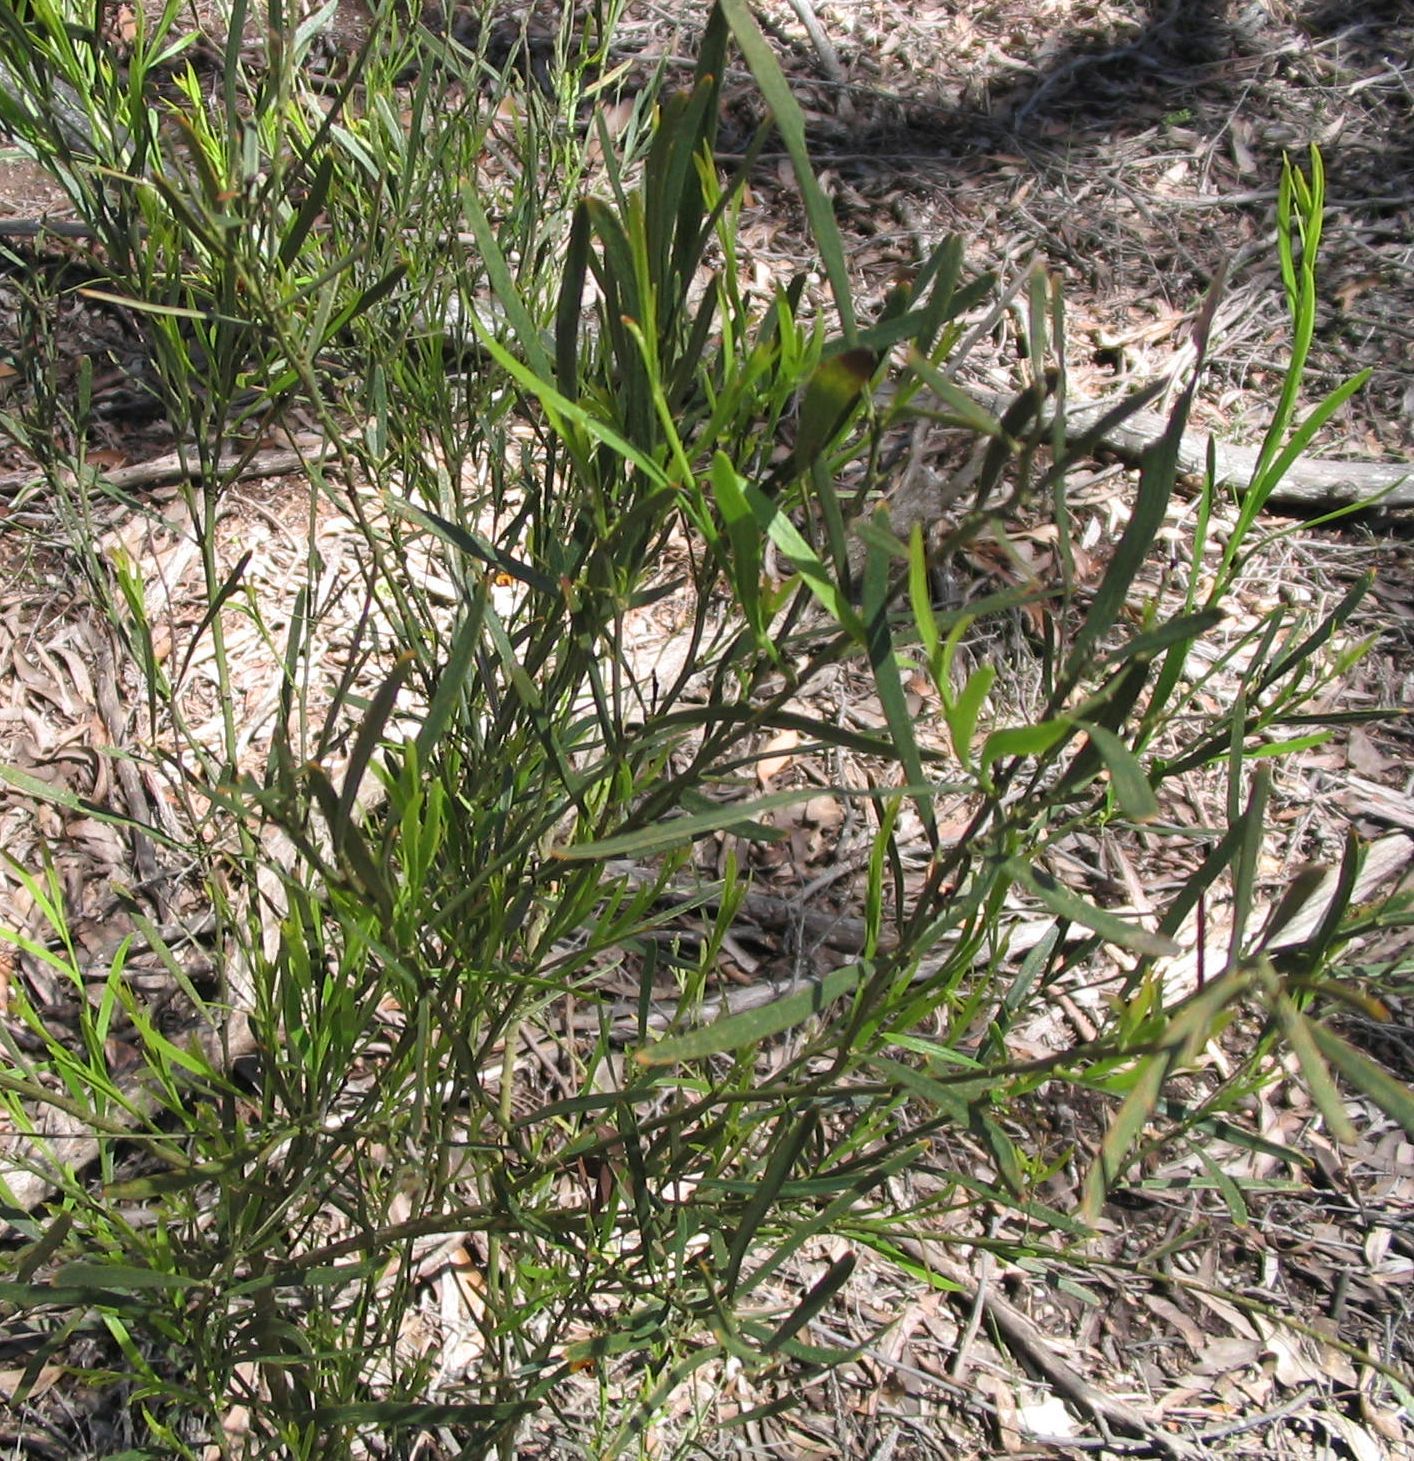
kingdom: Plantae
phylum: Tracheophyta
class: Magnoliopsida
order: Fabales
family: Fabaceae
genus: Daviesia
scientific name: Daviesia leptophylla
